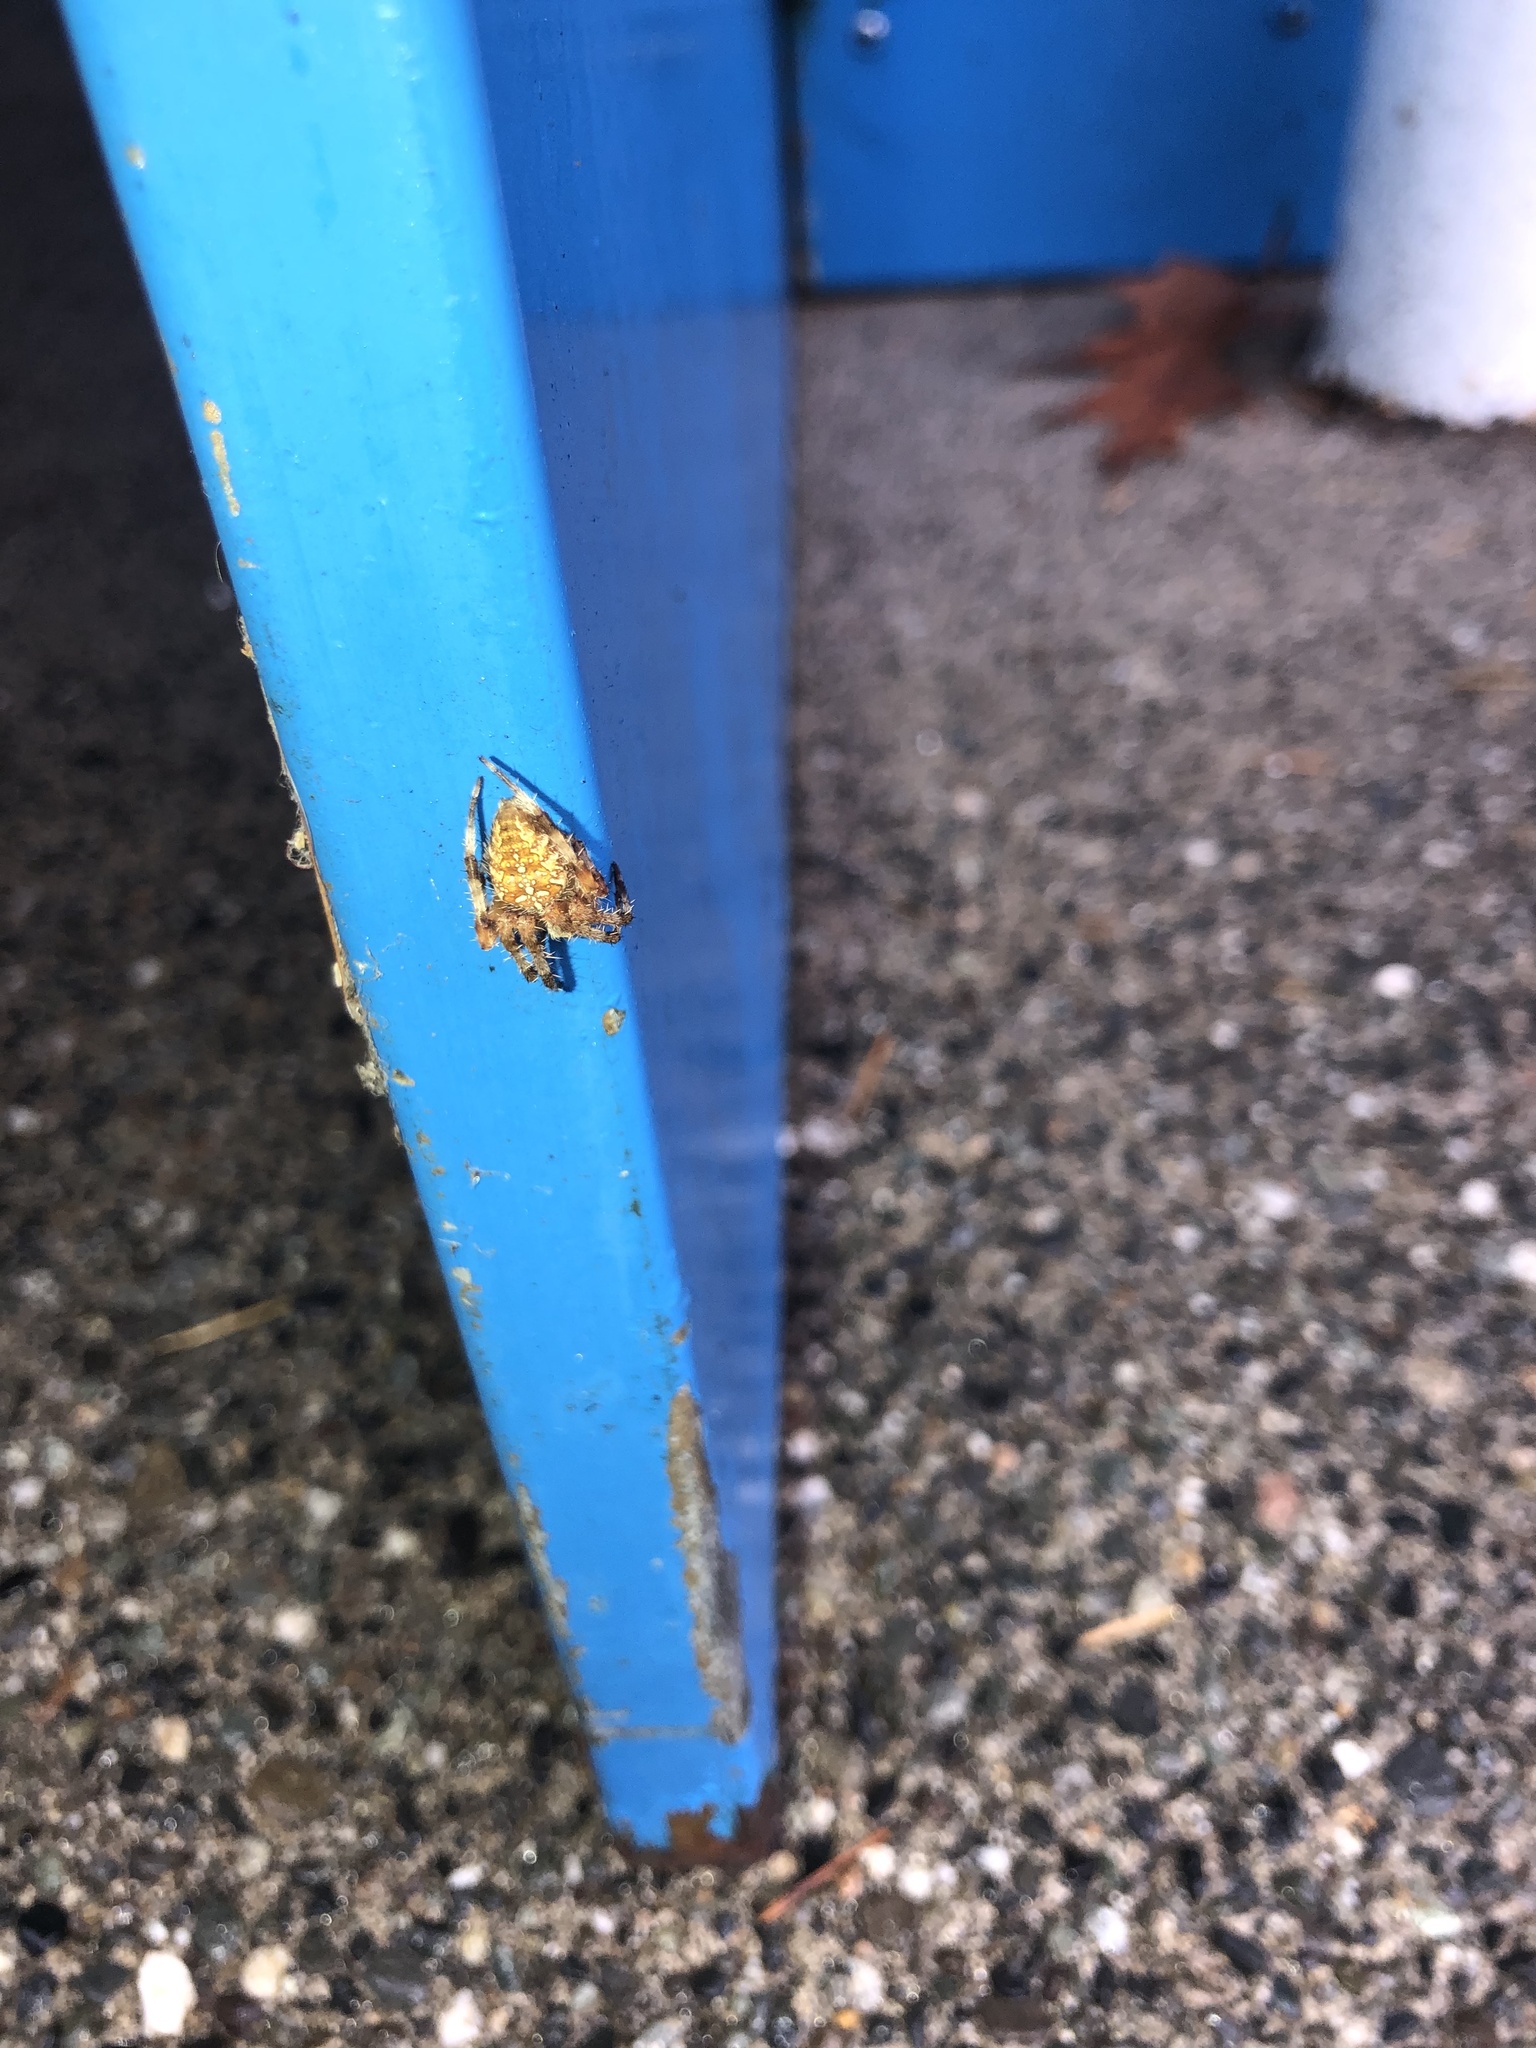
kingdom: Animalia
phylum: Arthropoda
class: Arachnida
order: Araneae
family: Araneidae
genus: Araneus
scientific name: Araneus diadematus
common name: Cross orbweaver
